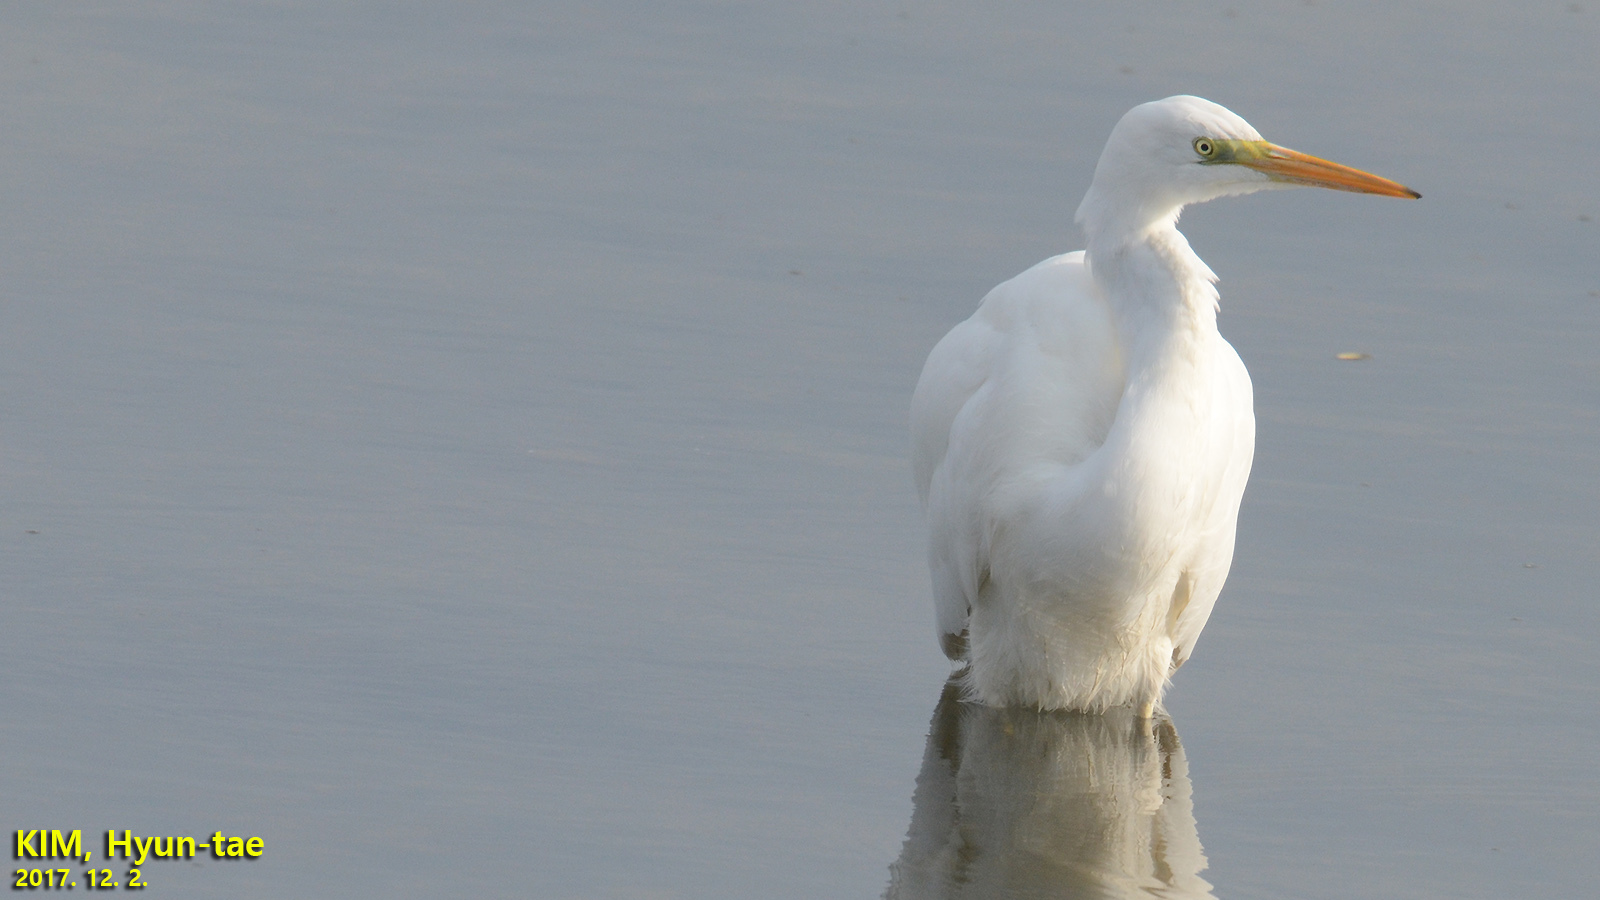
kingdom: Animalia
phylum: Chordata
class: Aves
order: Pelecaniformes
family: Ardeidae
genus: Ardea
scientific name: Ardea alba
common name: Great egret
